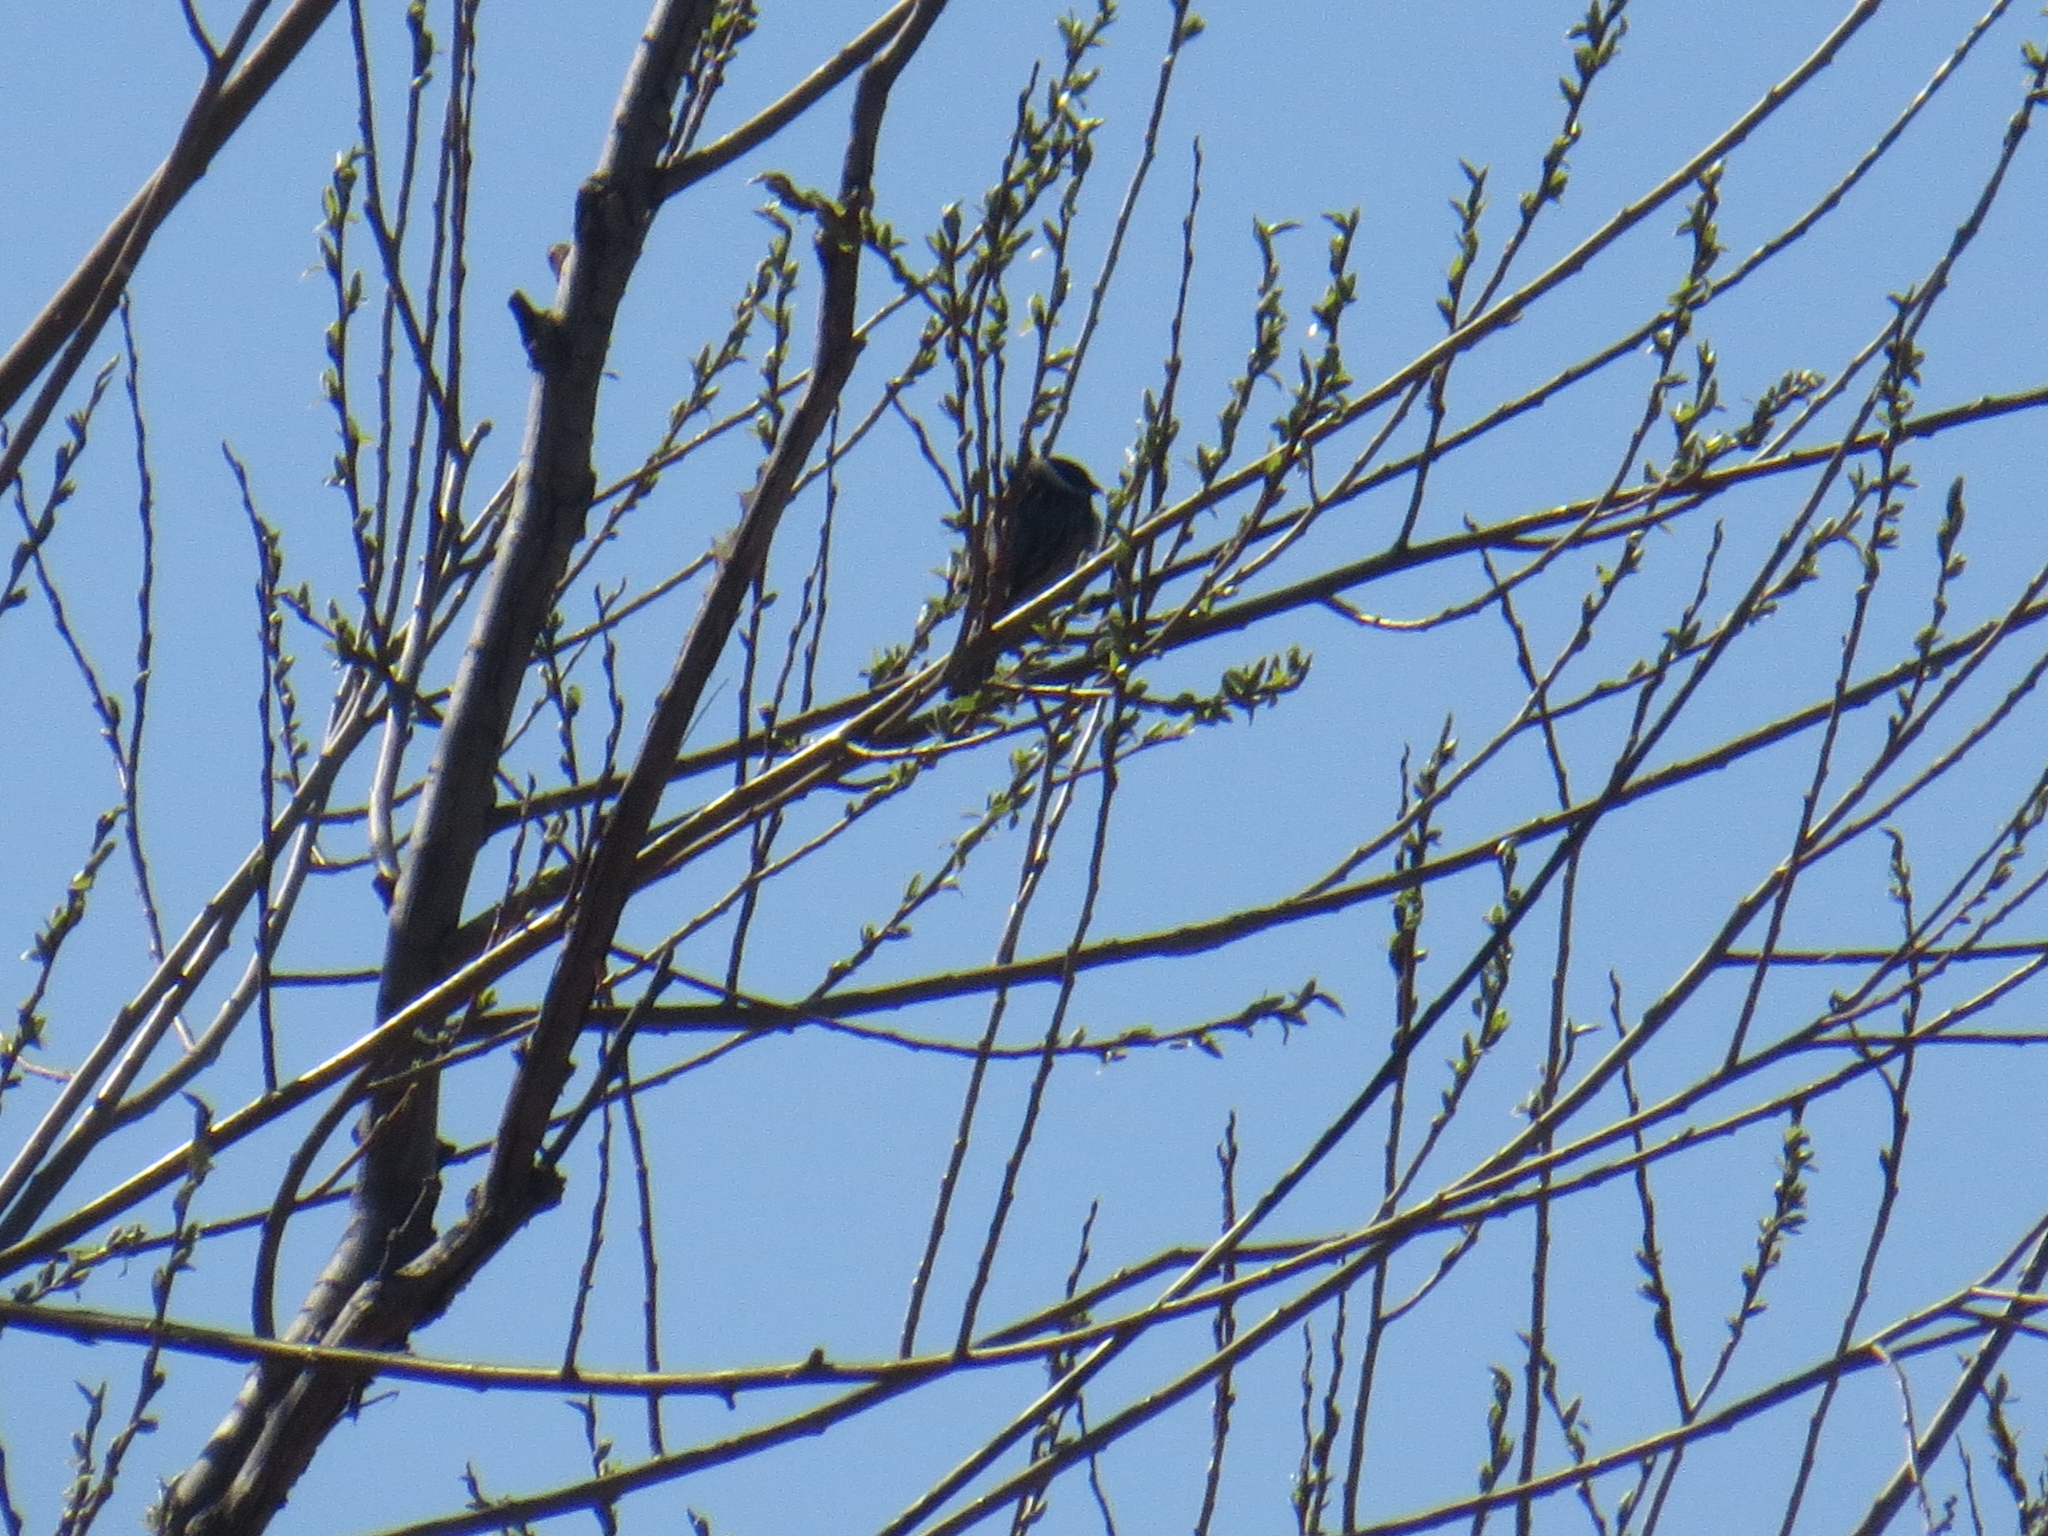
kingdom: Animalia
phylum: Chordata
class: Aves
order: Passeriformes
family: Emberizidae
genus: Emberiza
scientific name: Emberiza schoeniclus
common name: Reed bunting
